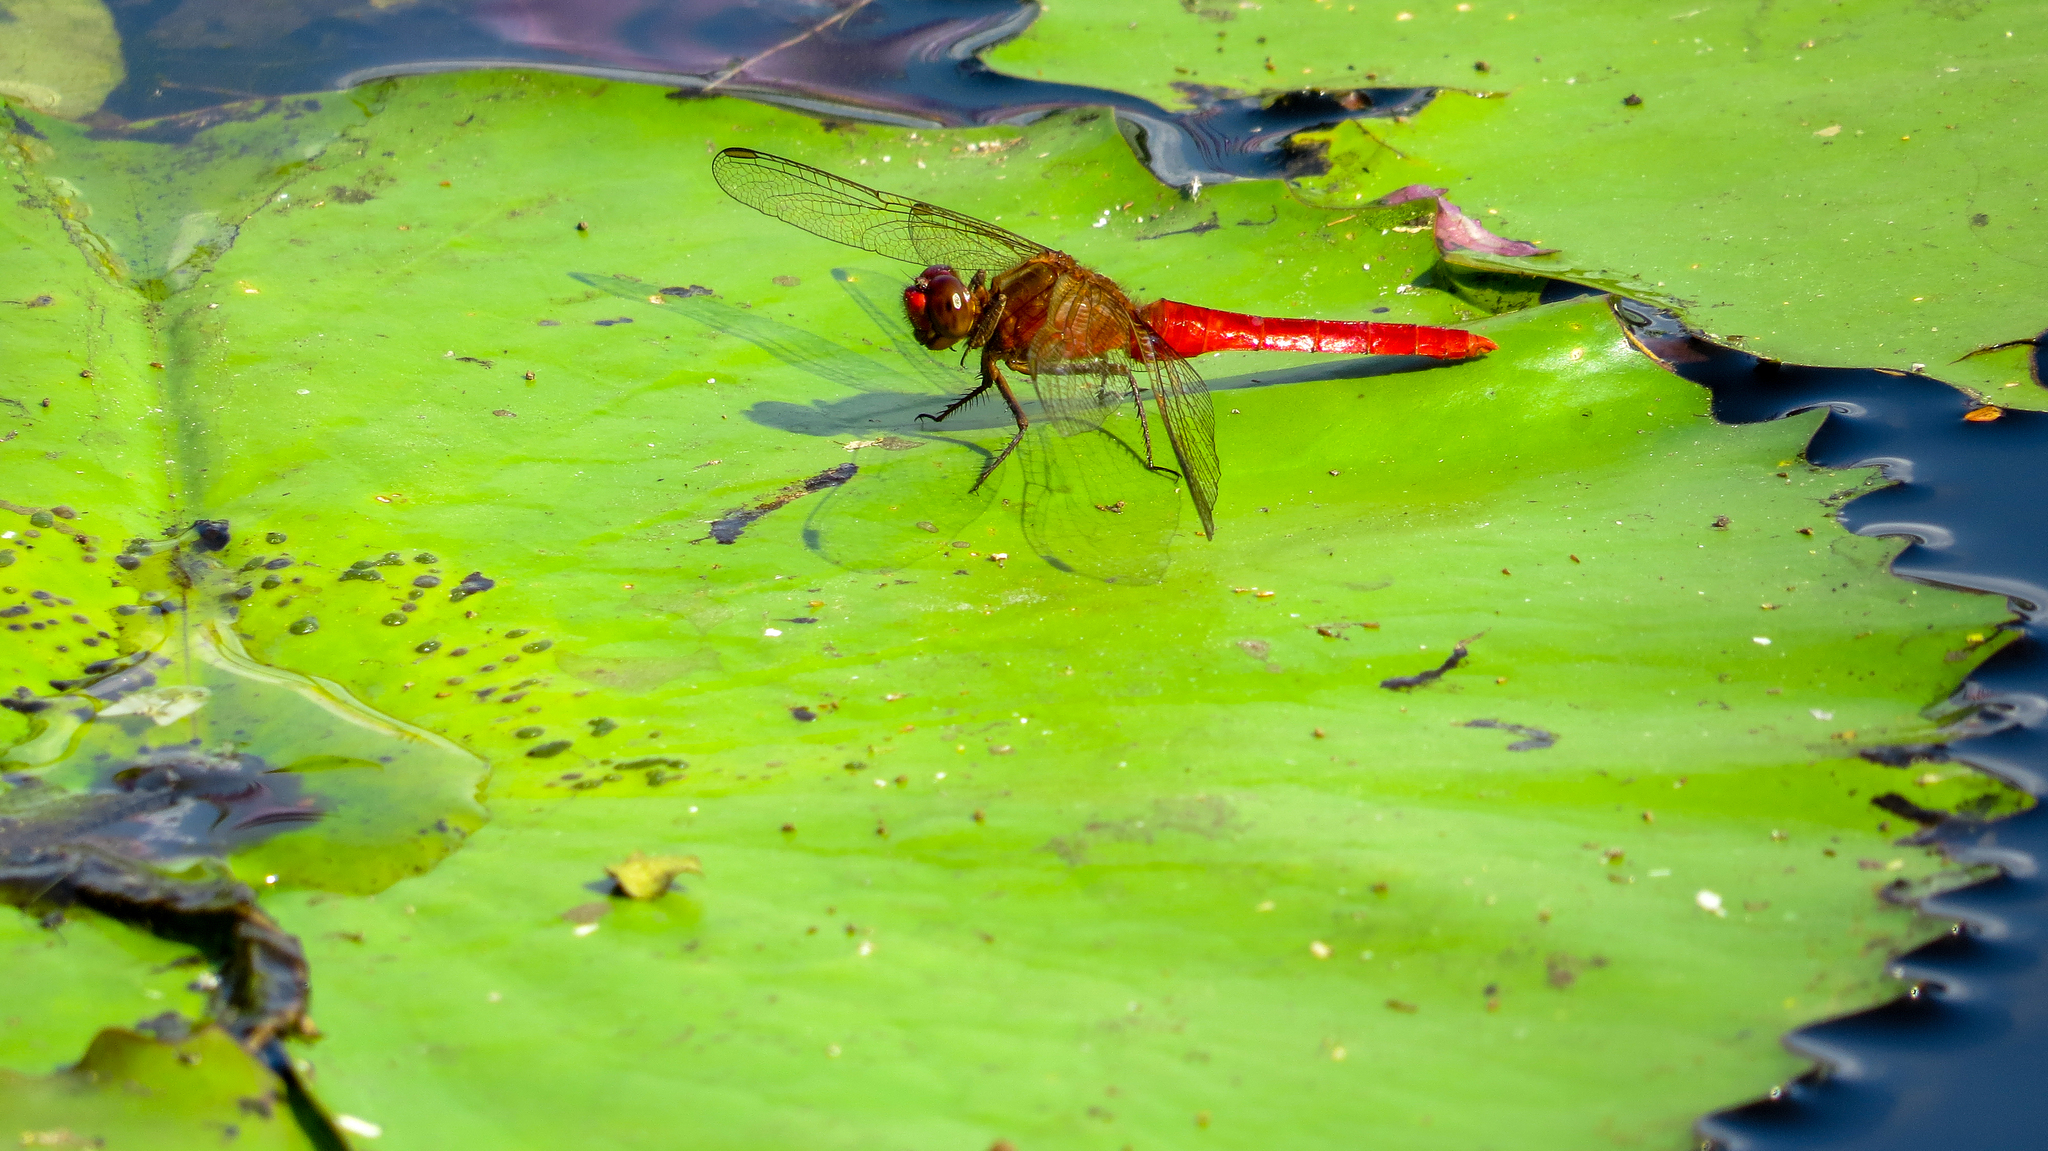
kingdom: Animalia
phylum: Arthropoda
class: Insecta
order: Odonata
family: Libellulidae
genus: Rhodothemis
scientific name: Rhodothemis lieftincki
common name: Red arrow
